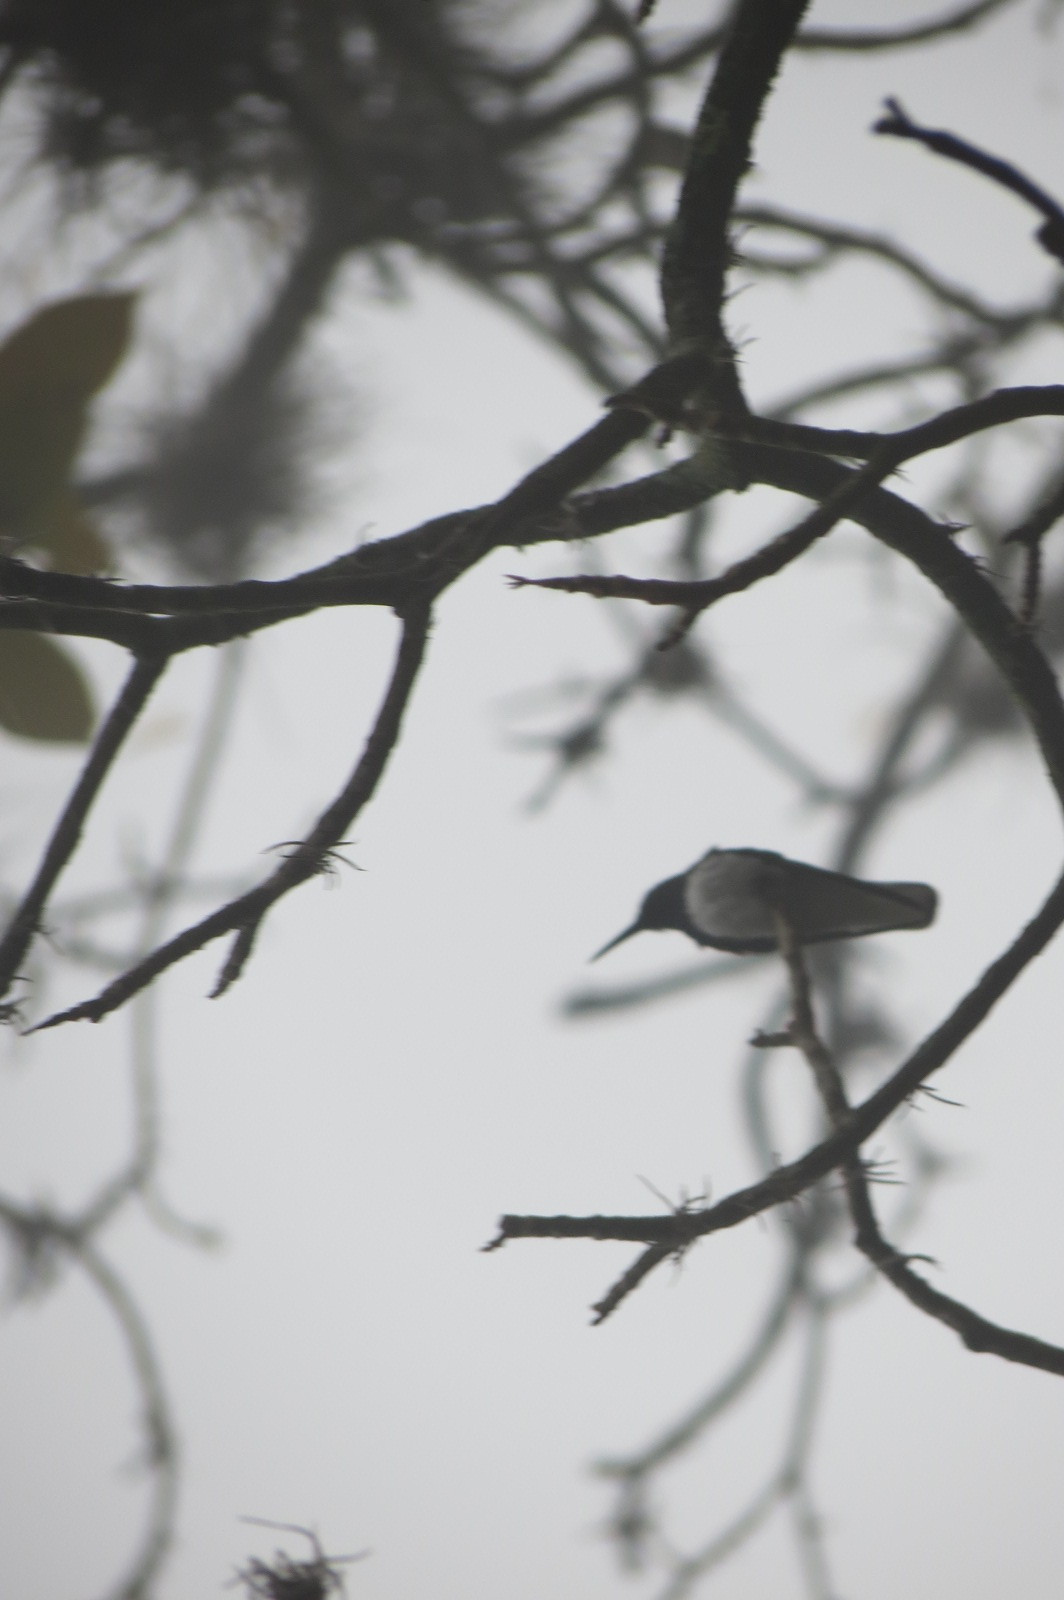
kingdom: Animalia
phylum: Chordata
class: Aves
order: Apodiformes
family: Trochilidae
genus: Florisuga
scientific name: Florisuga mellivora
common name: White-necked jacobin
